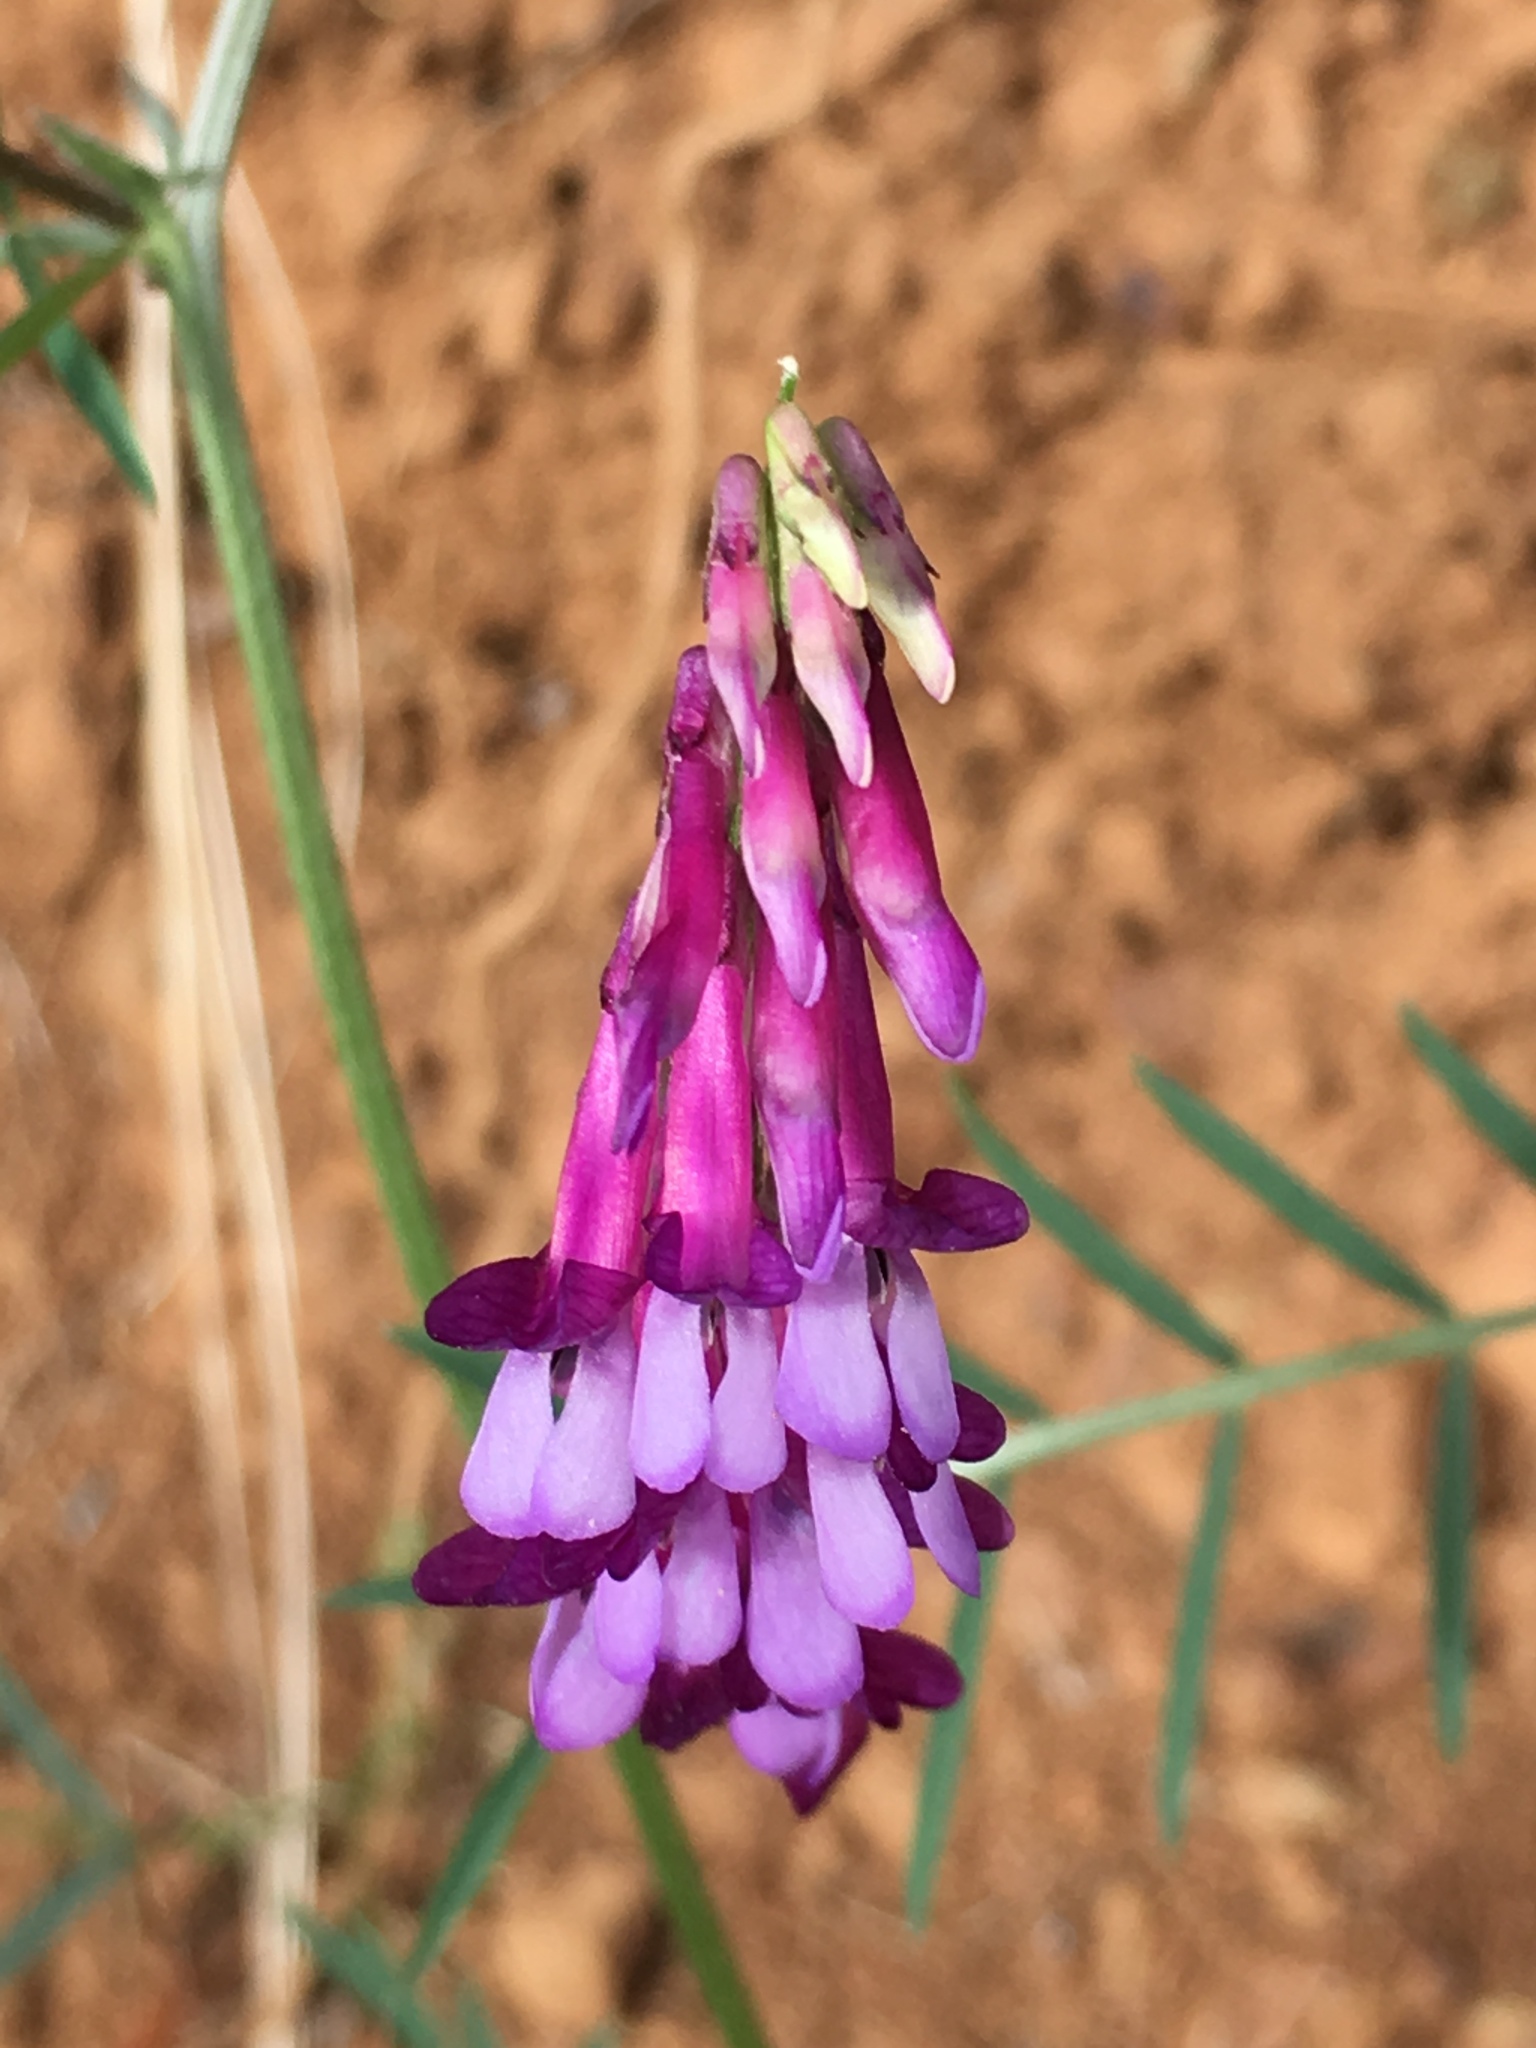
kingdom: Plantae
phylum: Tracheophyta
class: Magnoliopsida
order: Fabales
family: Fabaceae
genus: Vicia
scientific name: Vicia villosa
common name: Fodder vetch
